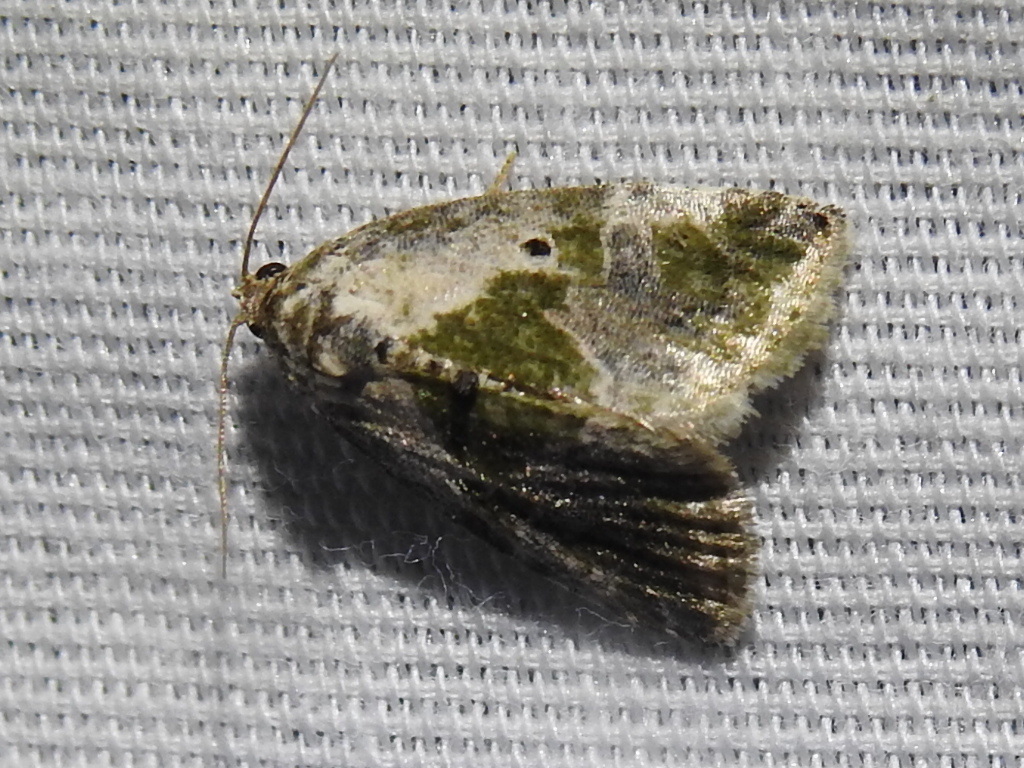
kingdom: Animalia
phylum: Arthropoda
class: Insecta
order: Lepidoptera
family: Noctuidae
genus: Maliattha
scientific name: Maliattha synochitis
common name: Black-dotted glyph
